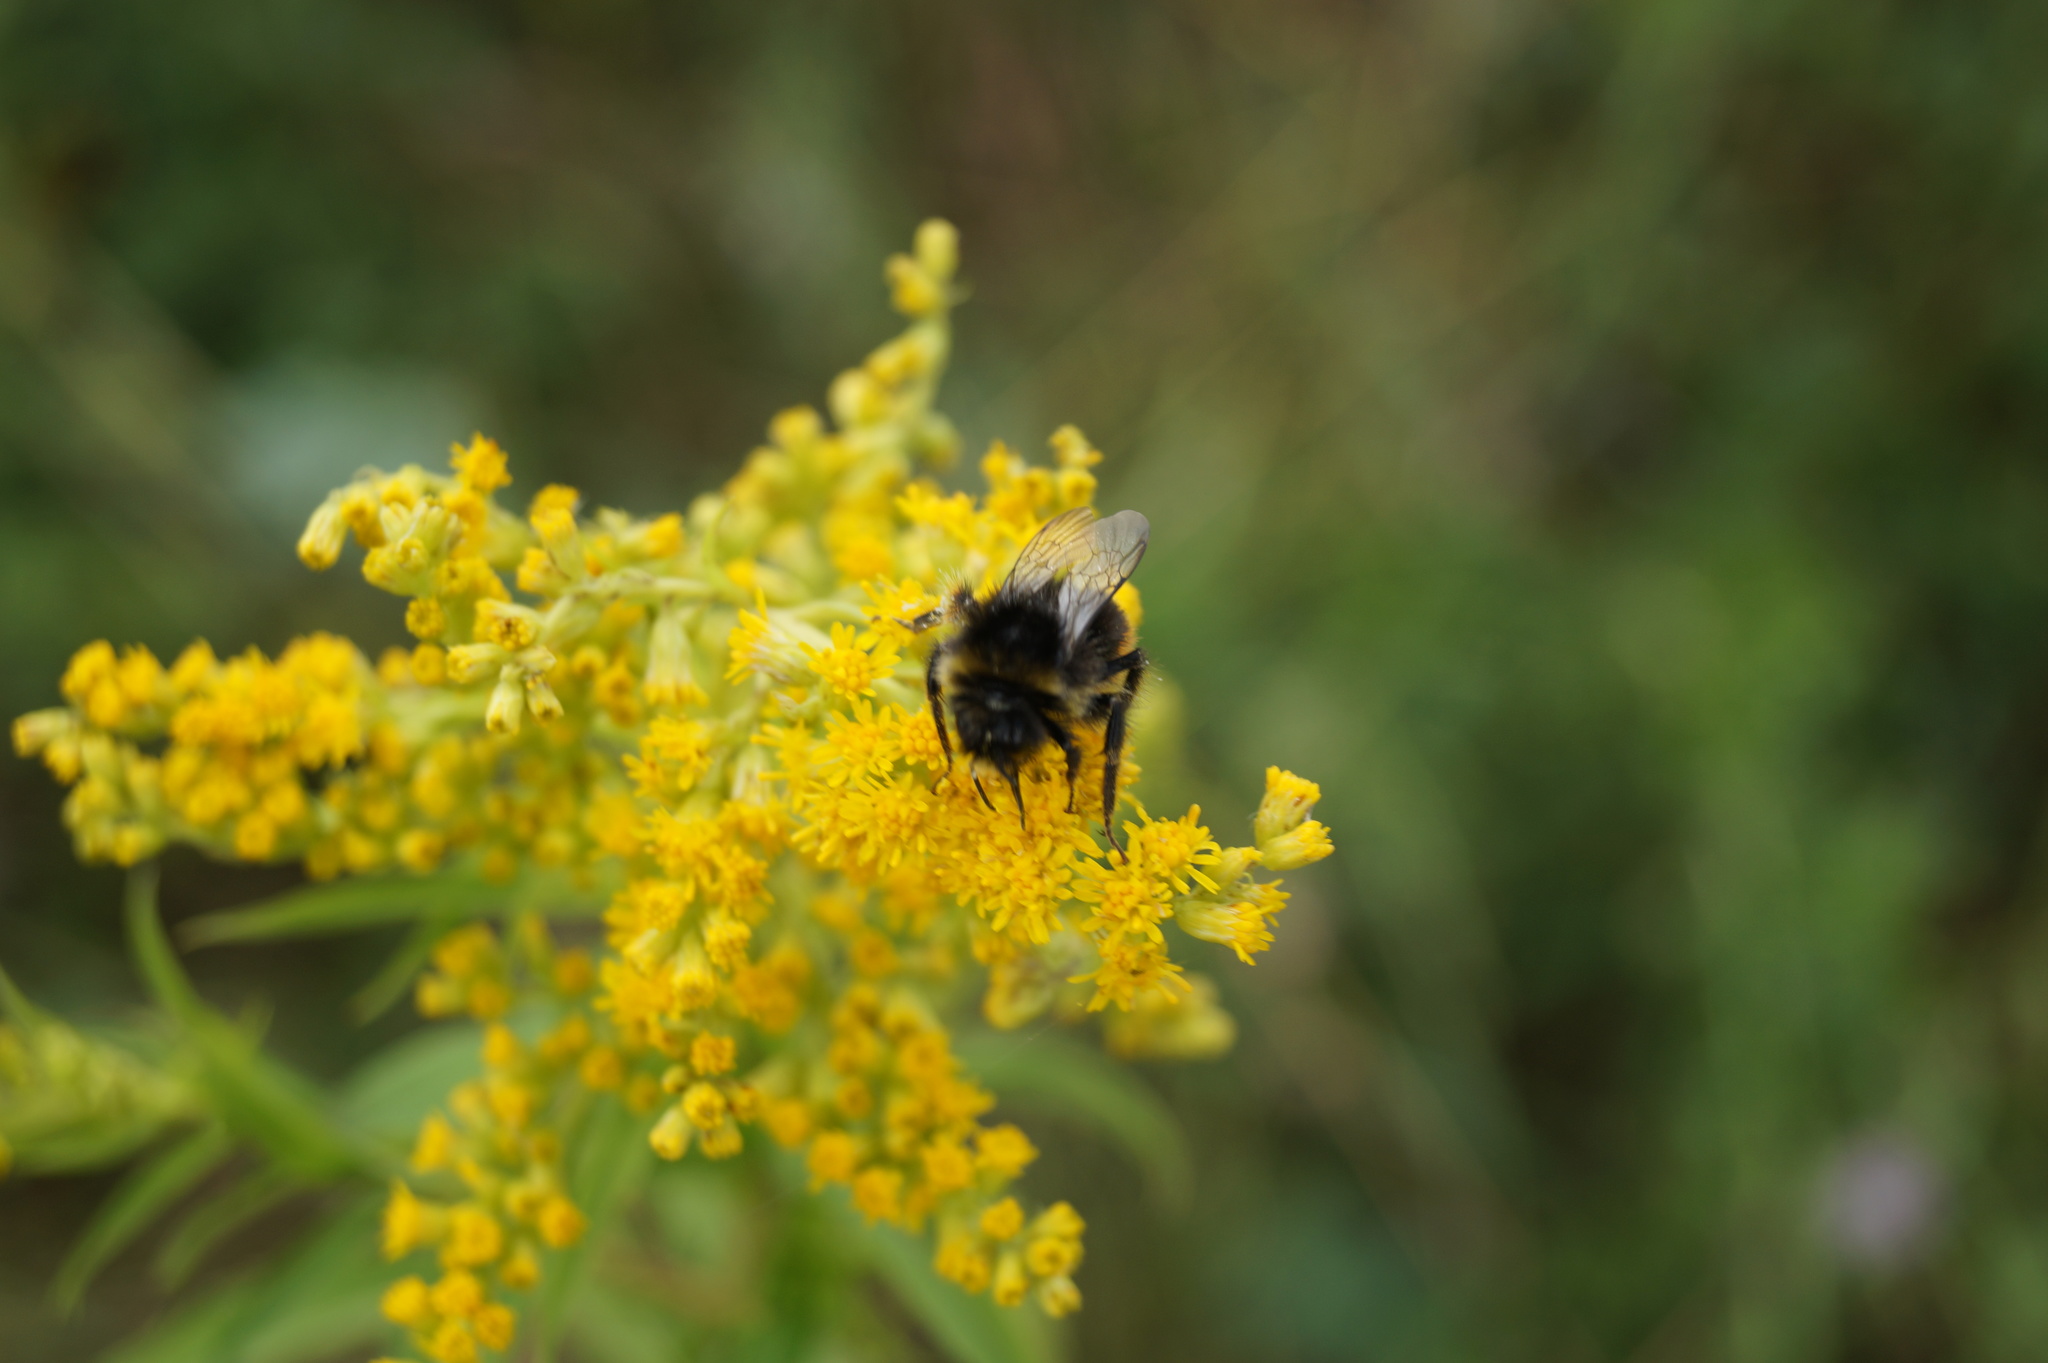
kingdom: Animalia
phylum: Arthropoda
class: Insecta
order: Hymenoptera
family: Apidae
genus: Bombus
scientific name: Bombus lapidarius
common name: Large red-tailed humble-bee
